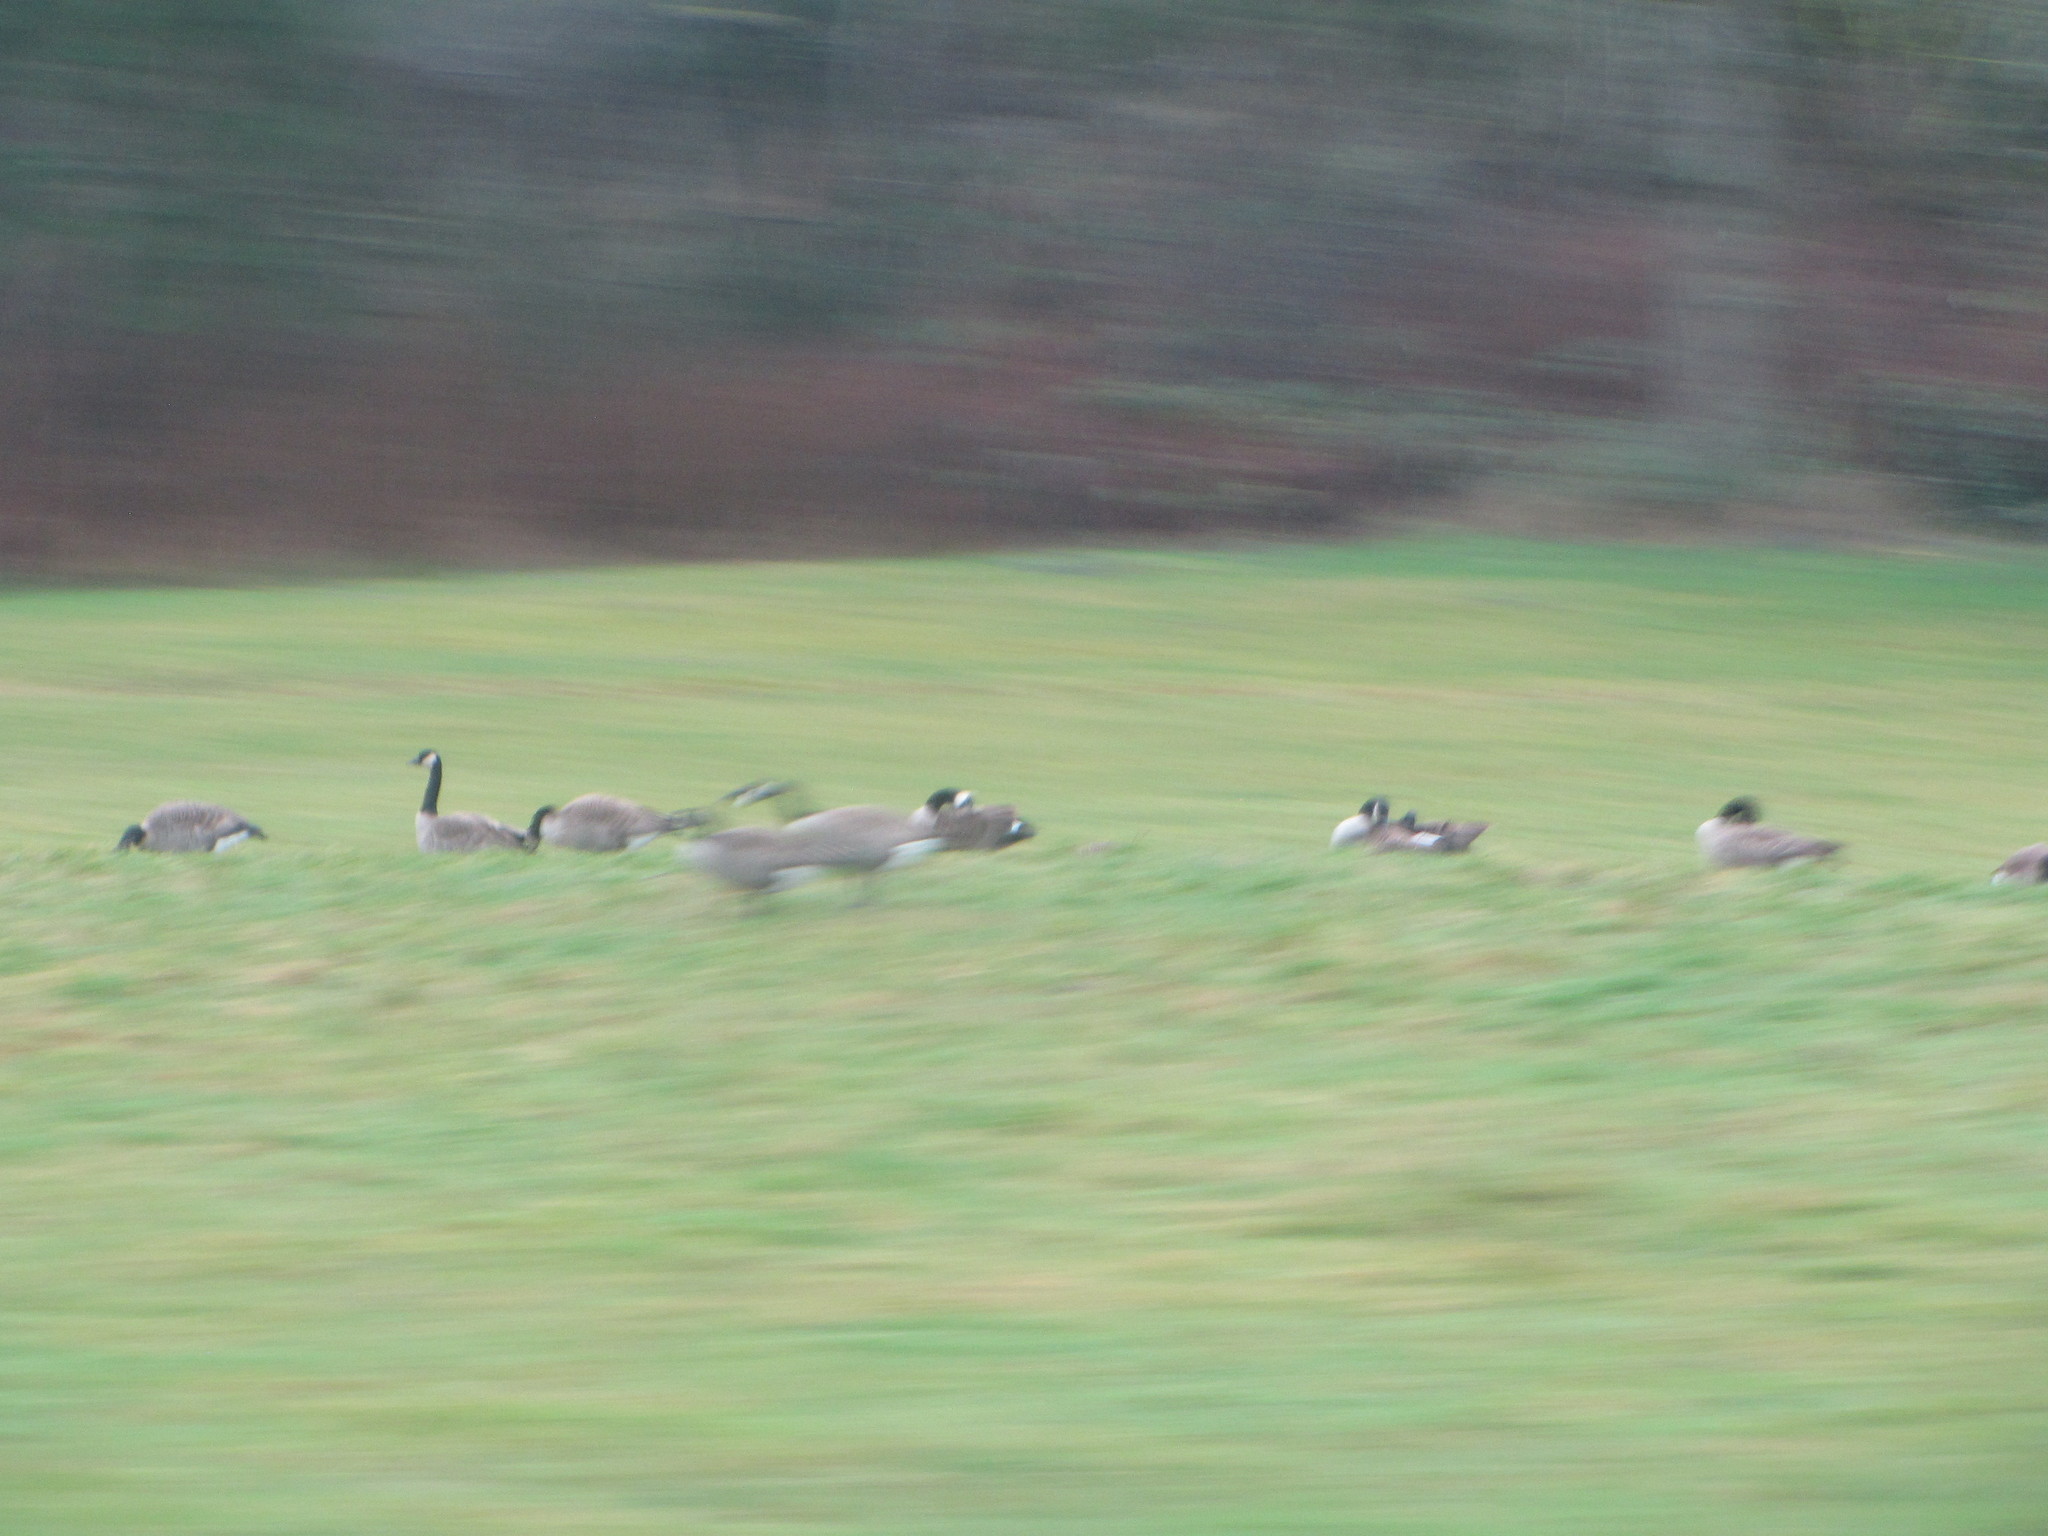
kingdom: Animalia
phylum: Chordata
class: Aves
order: Anseriformes
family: Anatidae
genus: Branta
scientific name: Branta canadensis
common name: Canada goose
